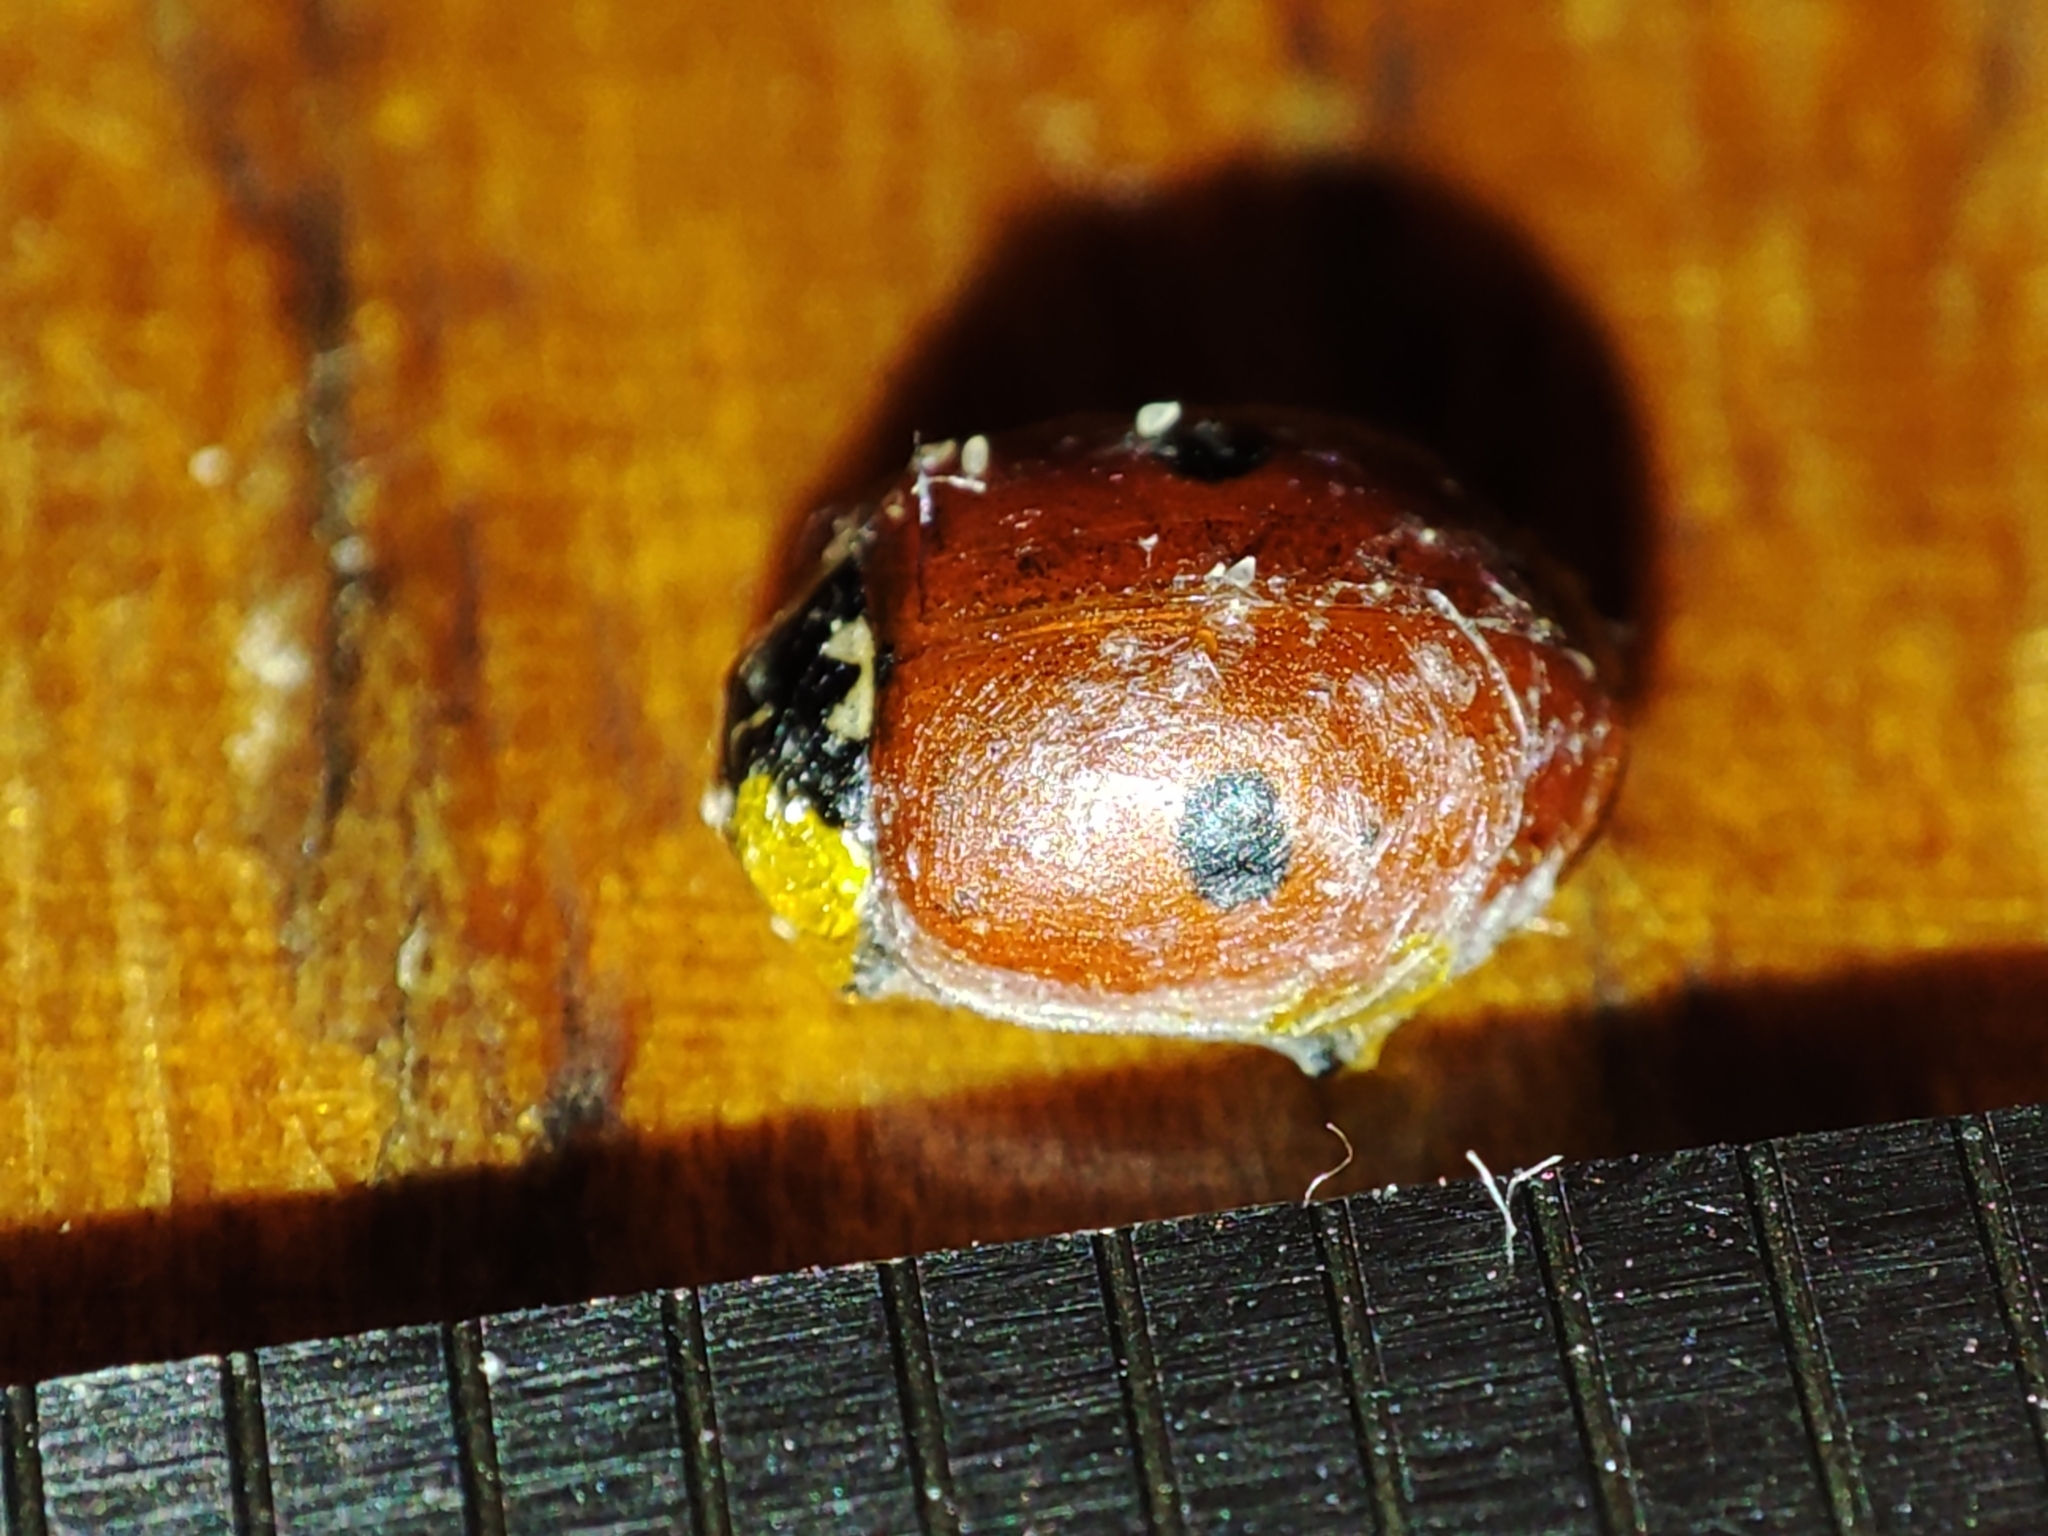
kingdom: Animalia
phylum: Arthropoda
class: Insecta
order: Coleoptera
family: Coccinellidae
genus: Adalia
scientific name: Adalia bipunctata
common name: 2-spot ladybird
